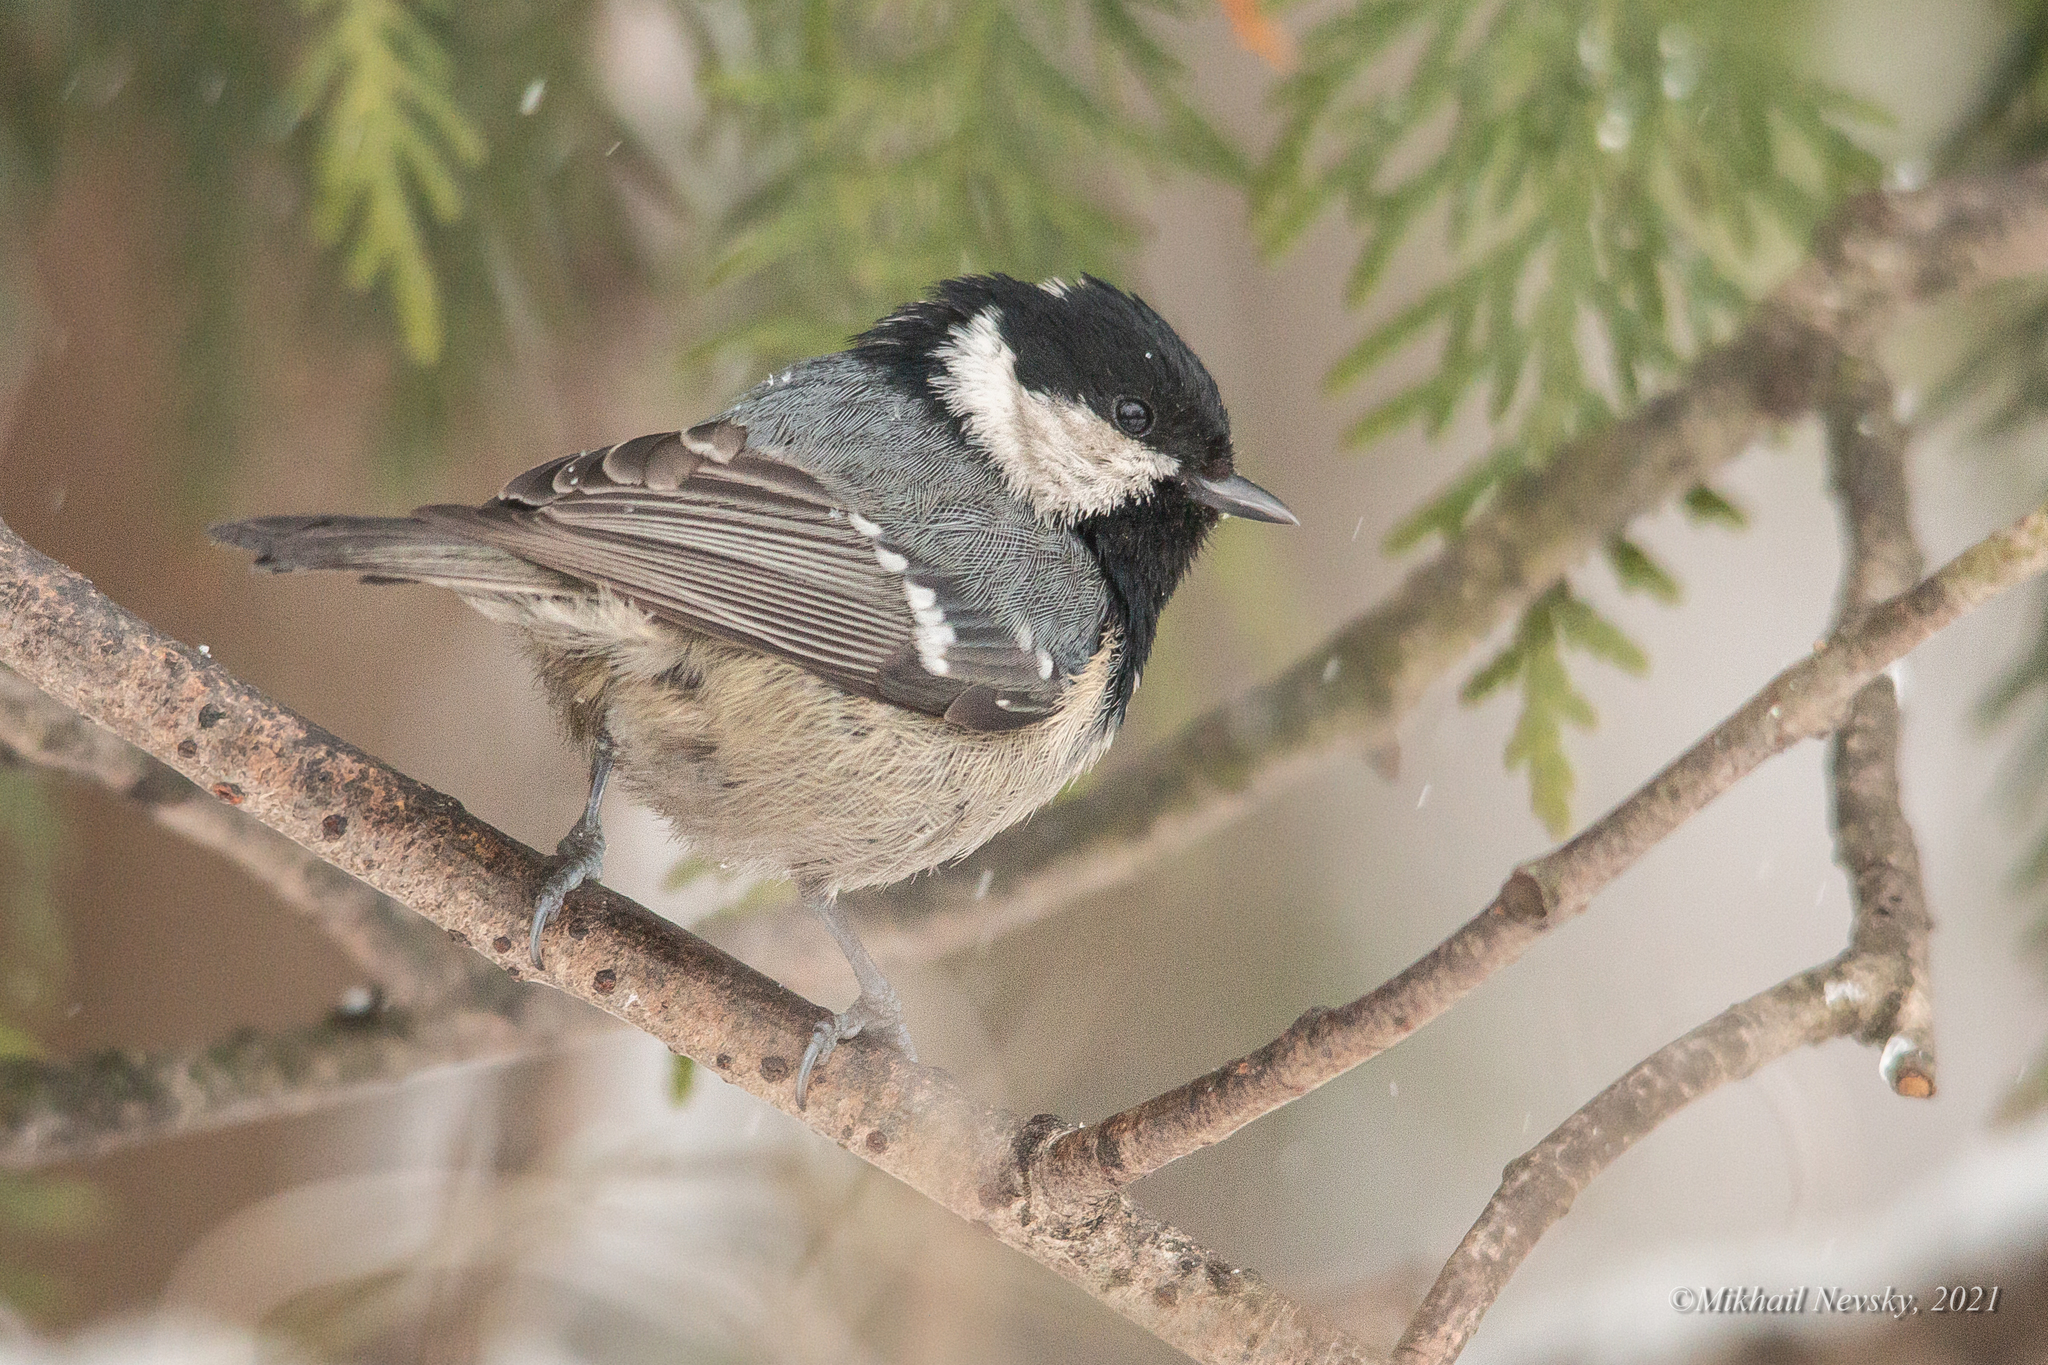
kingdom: Animalia
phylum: Chordata
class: Aves
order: Passeriformes
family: Paridae
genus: Periparus
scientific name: Periparus ater
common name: Coal tit
